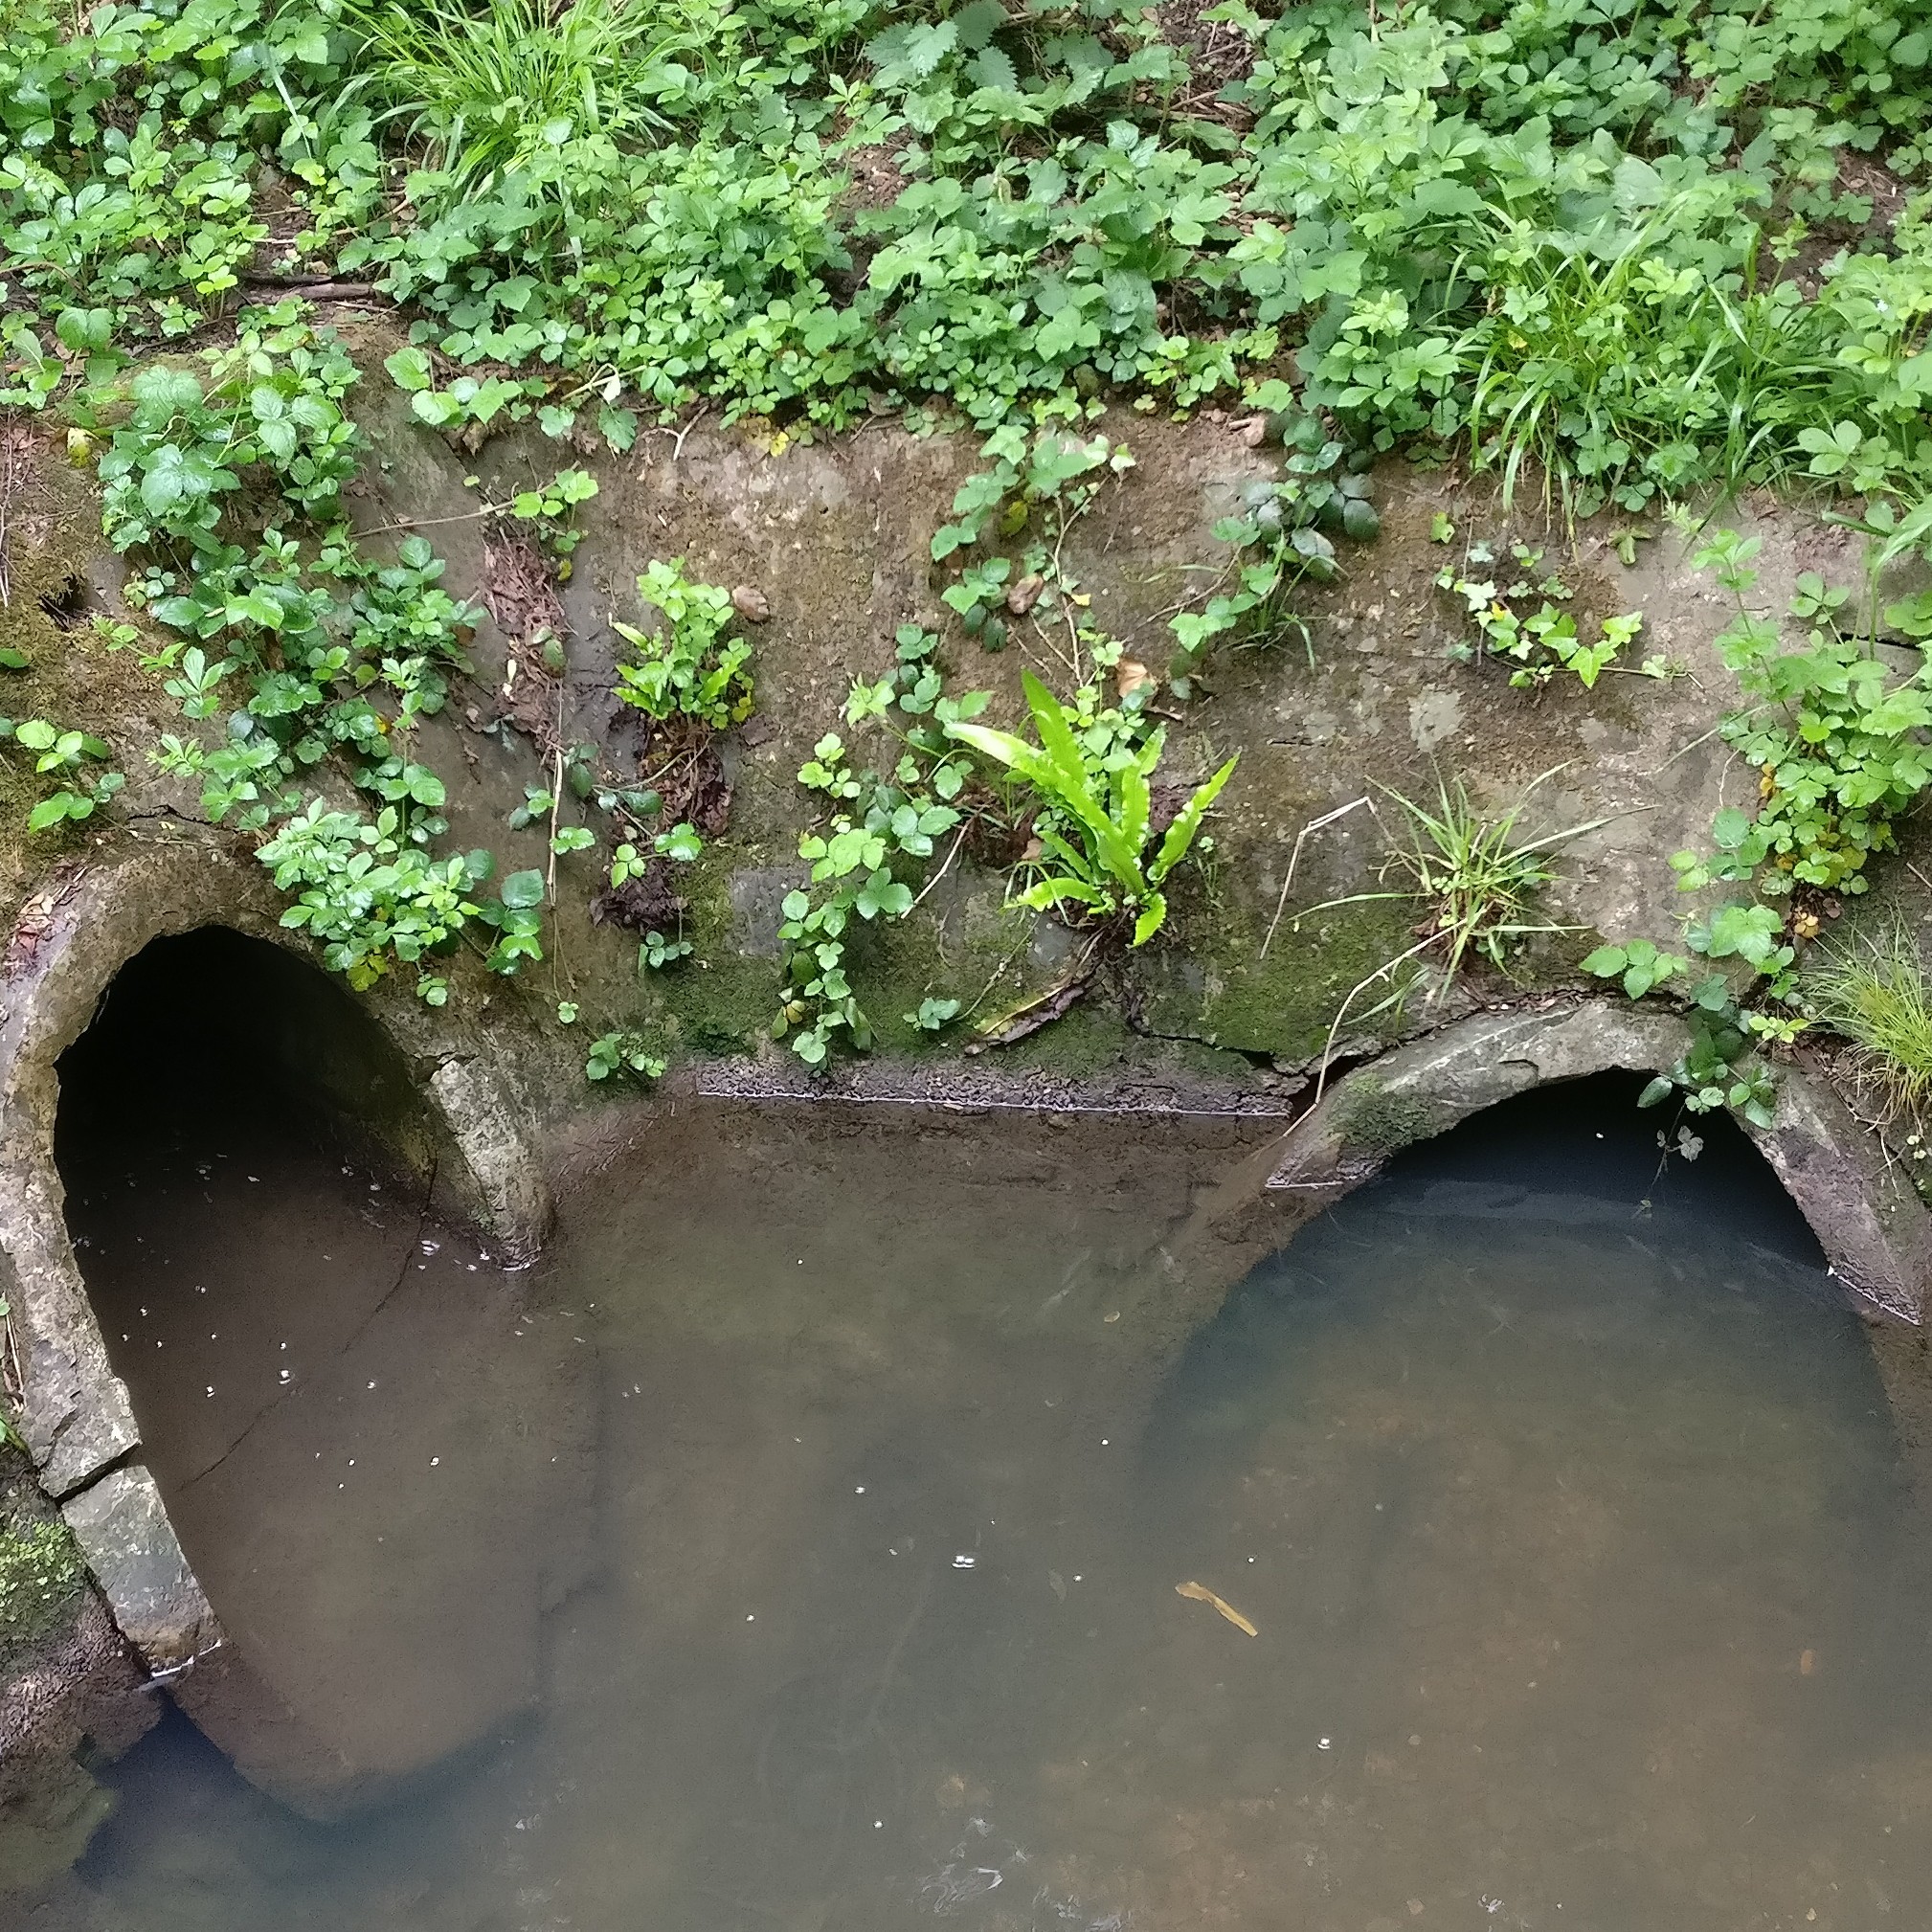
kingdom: Plantae
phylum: Tracheophyta
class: Polypodiopsida
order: Polypodiales
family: Aspleniaceae
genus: Asplenium
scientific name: Asplenium scolopendrium
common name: Hart's-tongue fern
